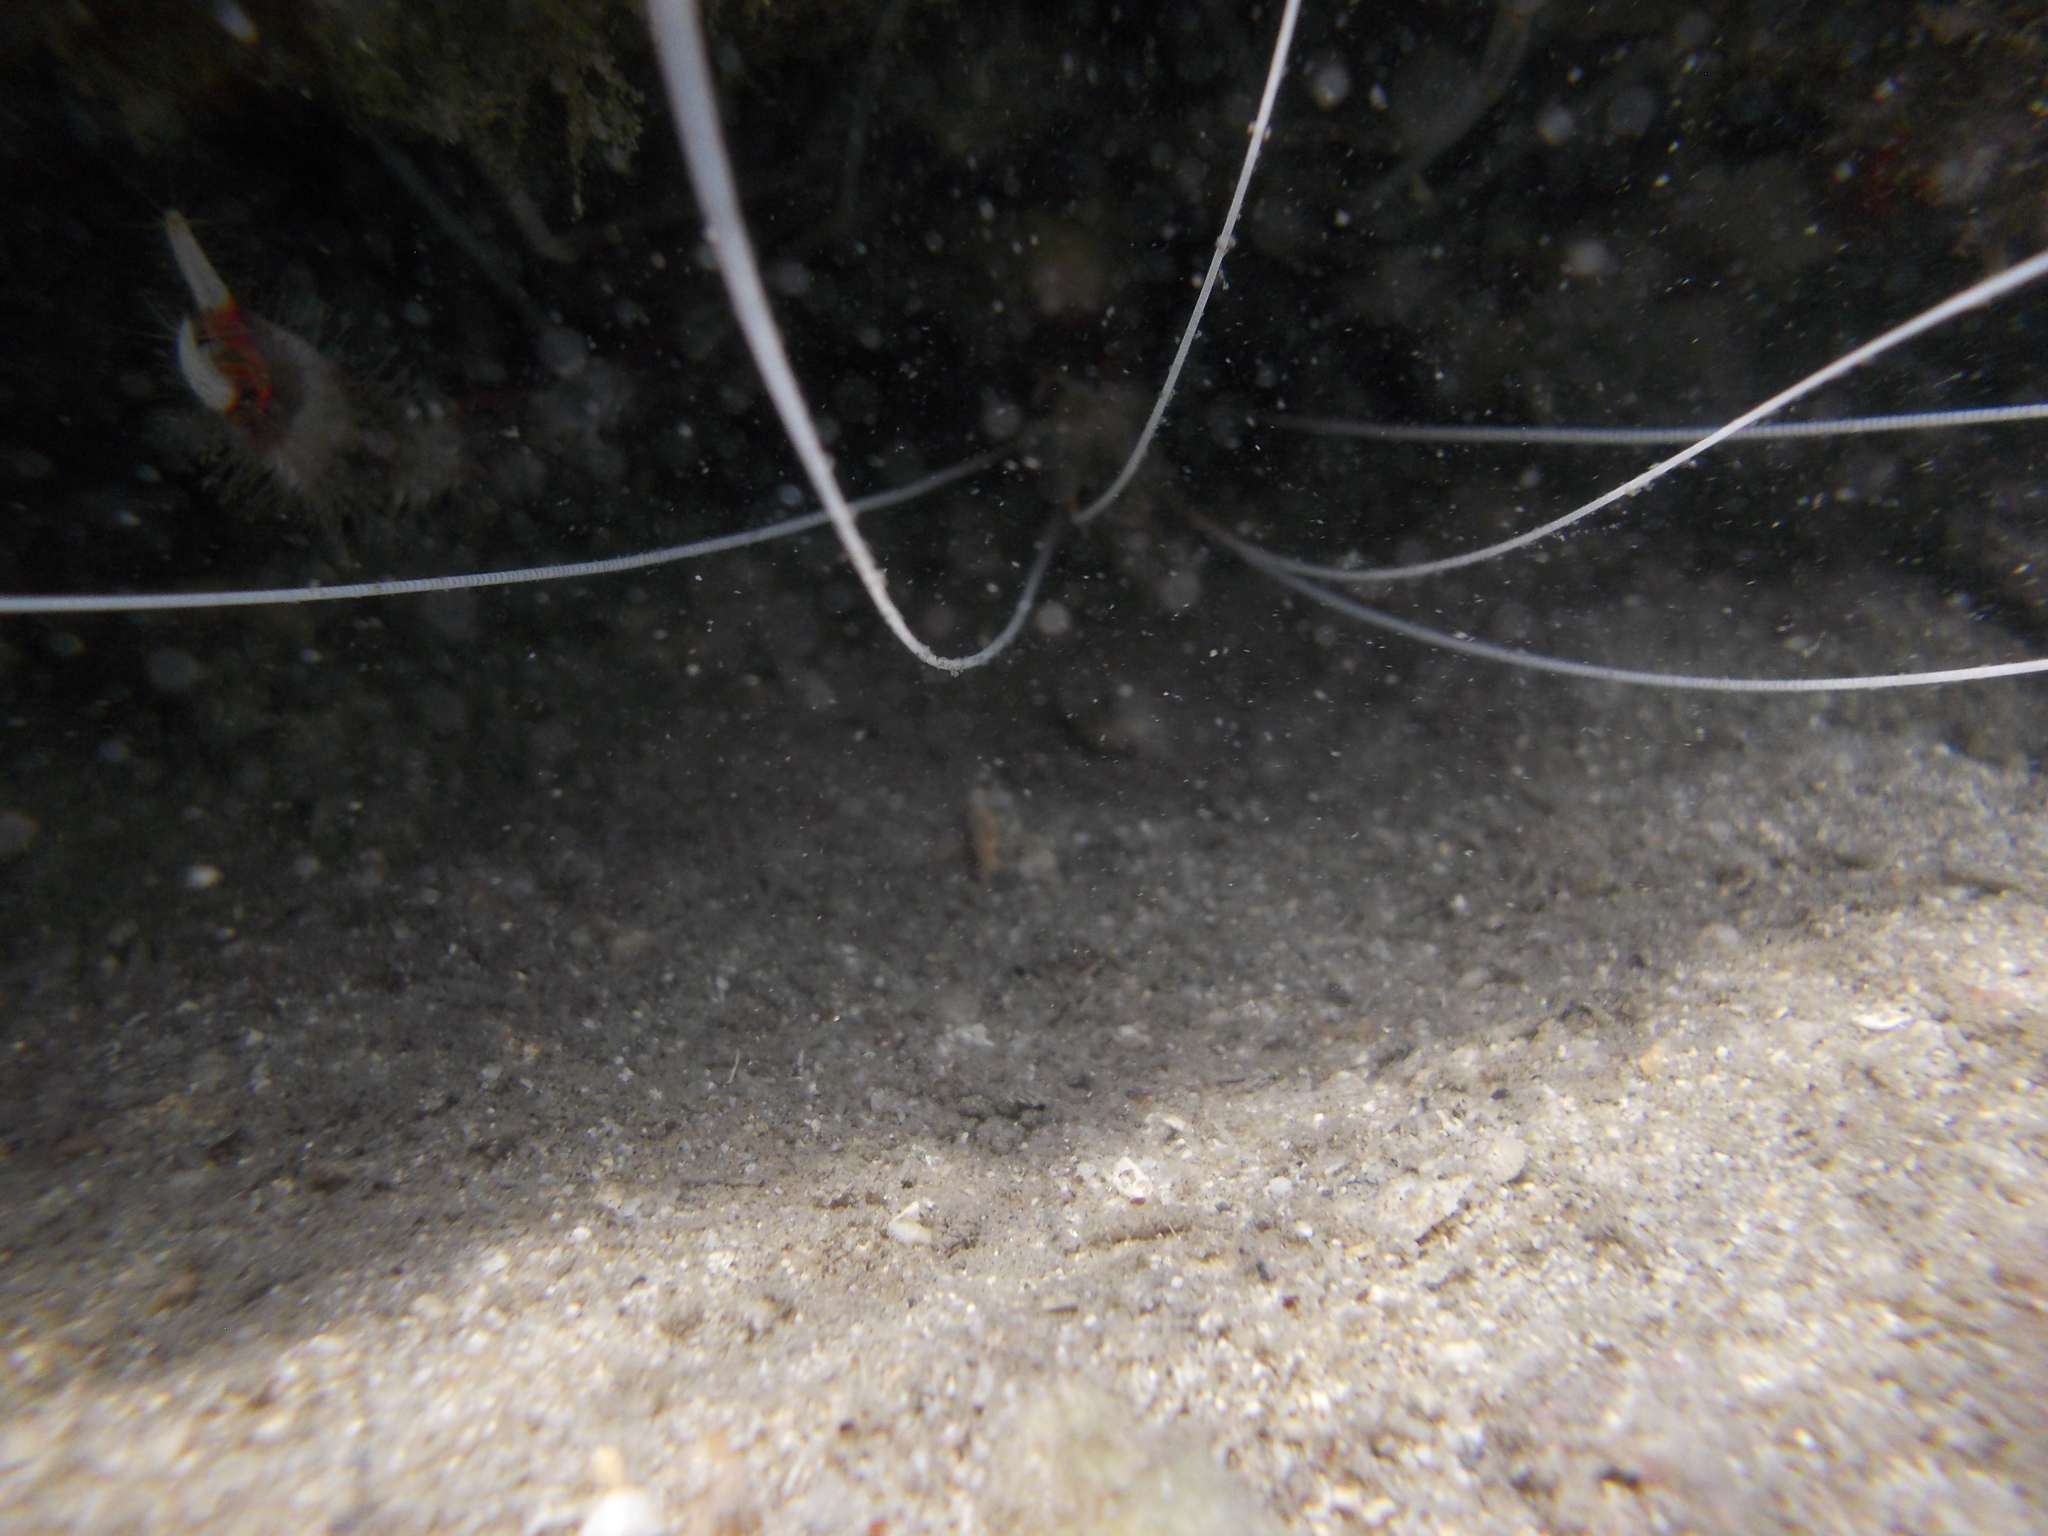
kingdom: Animalia
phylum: Arthropoda
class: Malacostraca
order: Decapoda
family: Stenopodidae
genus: Stenopus
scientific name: Stenopus hispidus
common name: Banded coral shrimp
